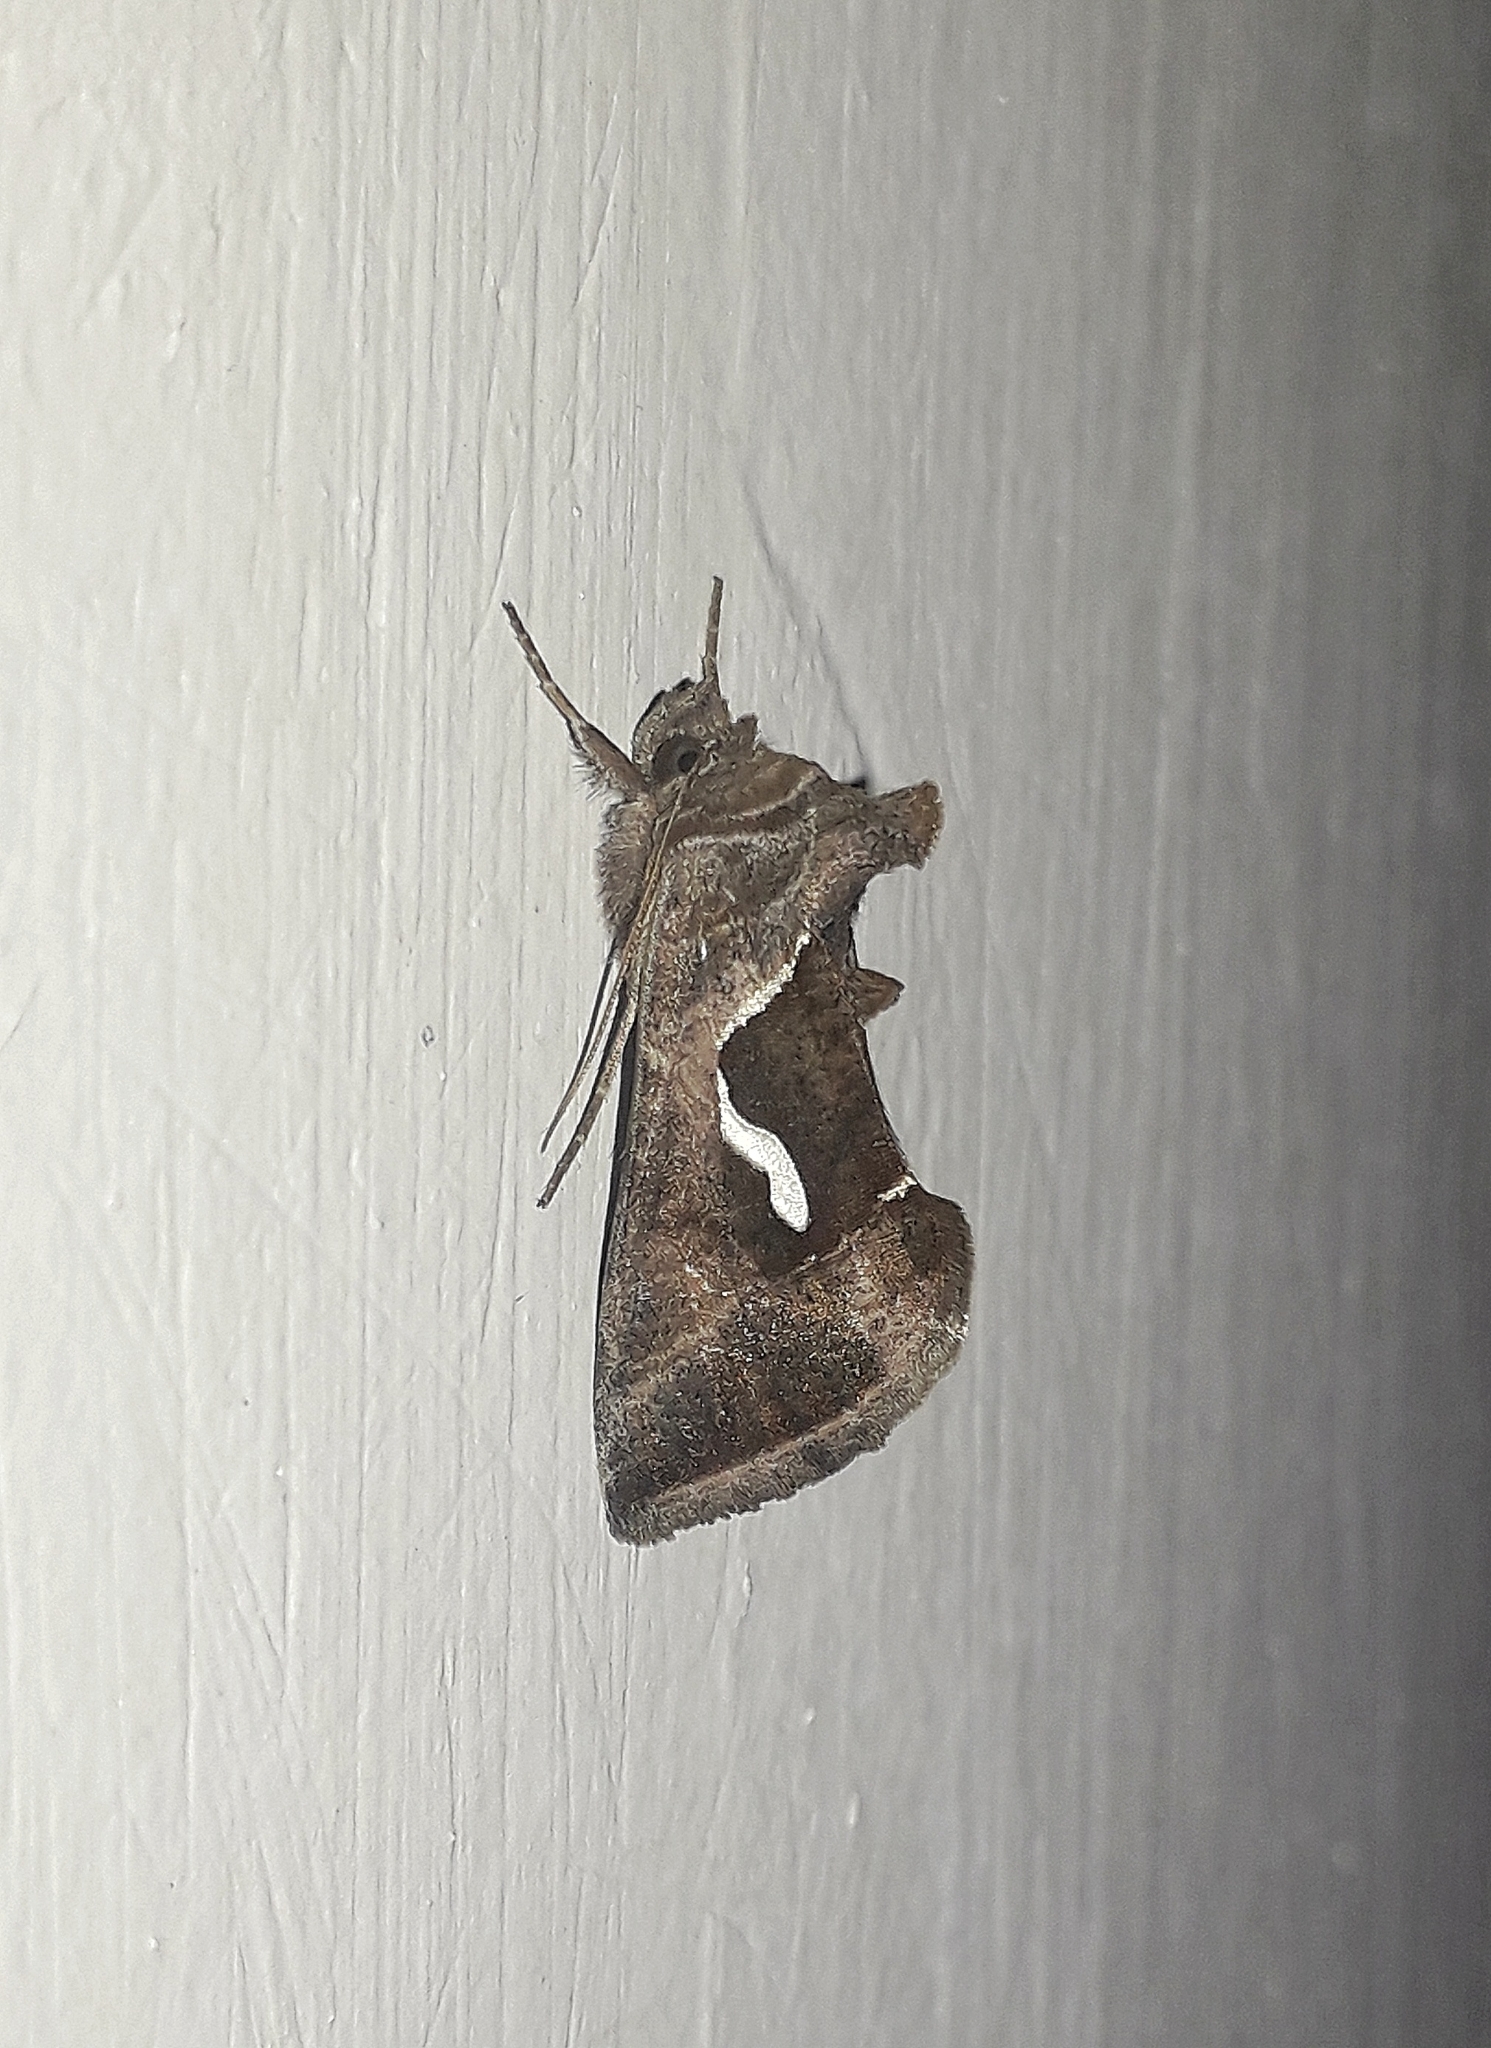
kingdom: Animalia
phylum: Arthropoda
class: Insecta
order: Lepidoptera
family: Noctuidae
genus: Macdunnoughia
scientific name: Macdunnoughia confusa
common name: Dewick's plusia
